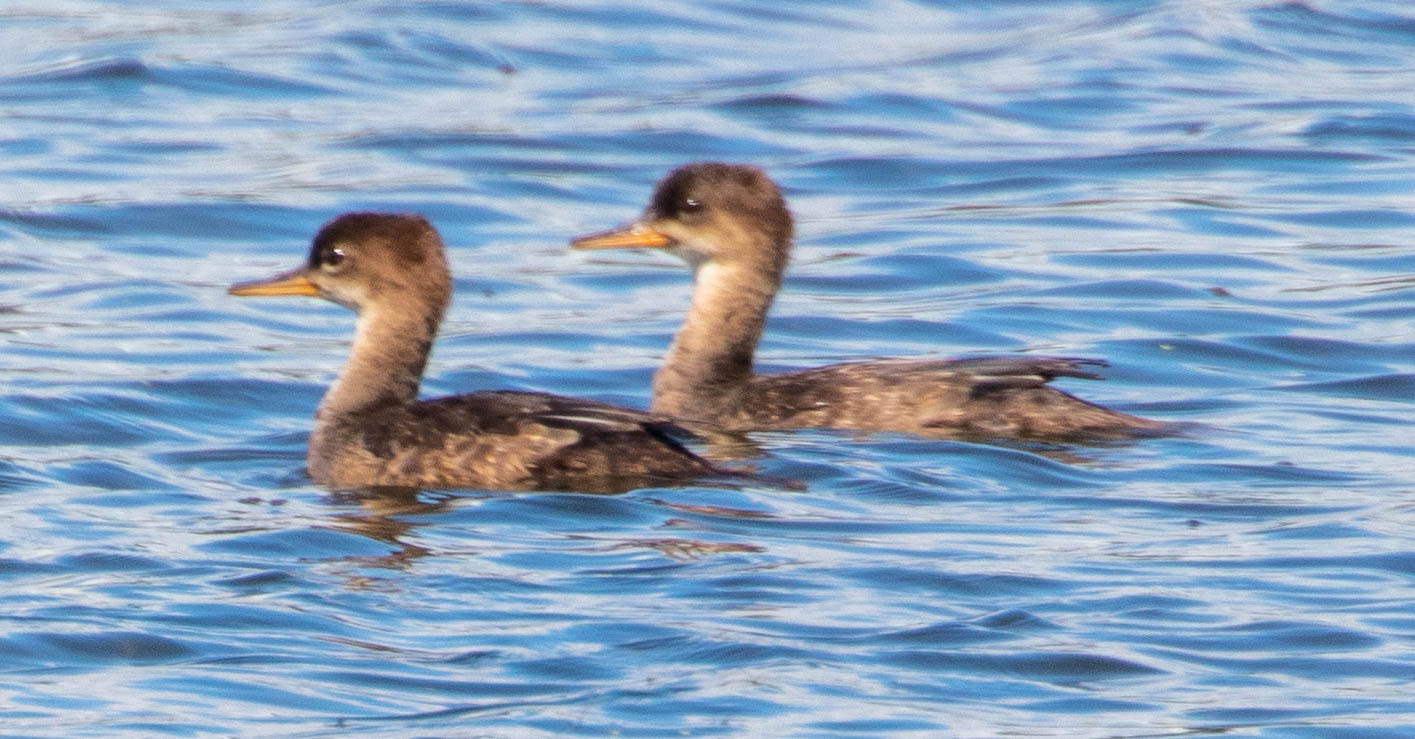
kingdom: Animalia
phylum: Chordata
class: Aves
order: Anseriformes
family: Anatidae
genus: Lophodytes
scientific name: Lophodytes cucullatus
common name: Hooded merganser
